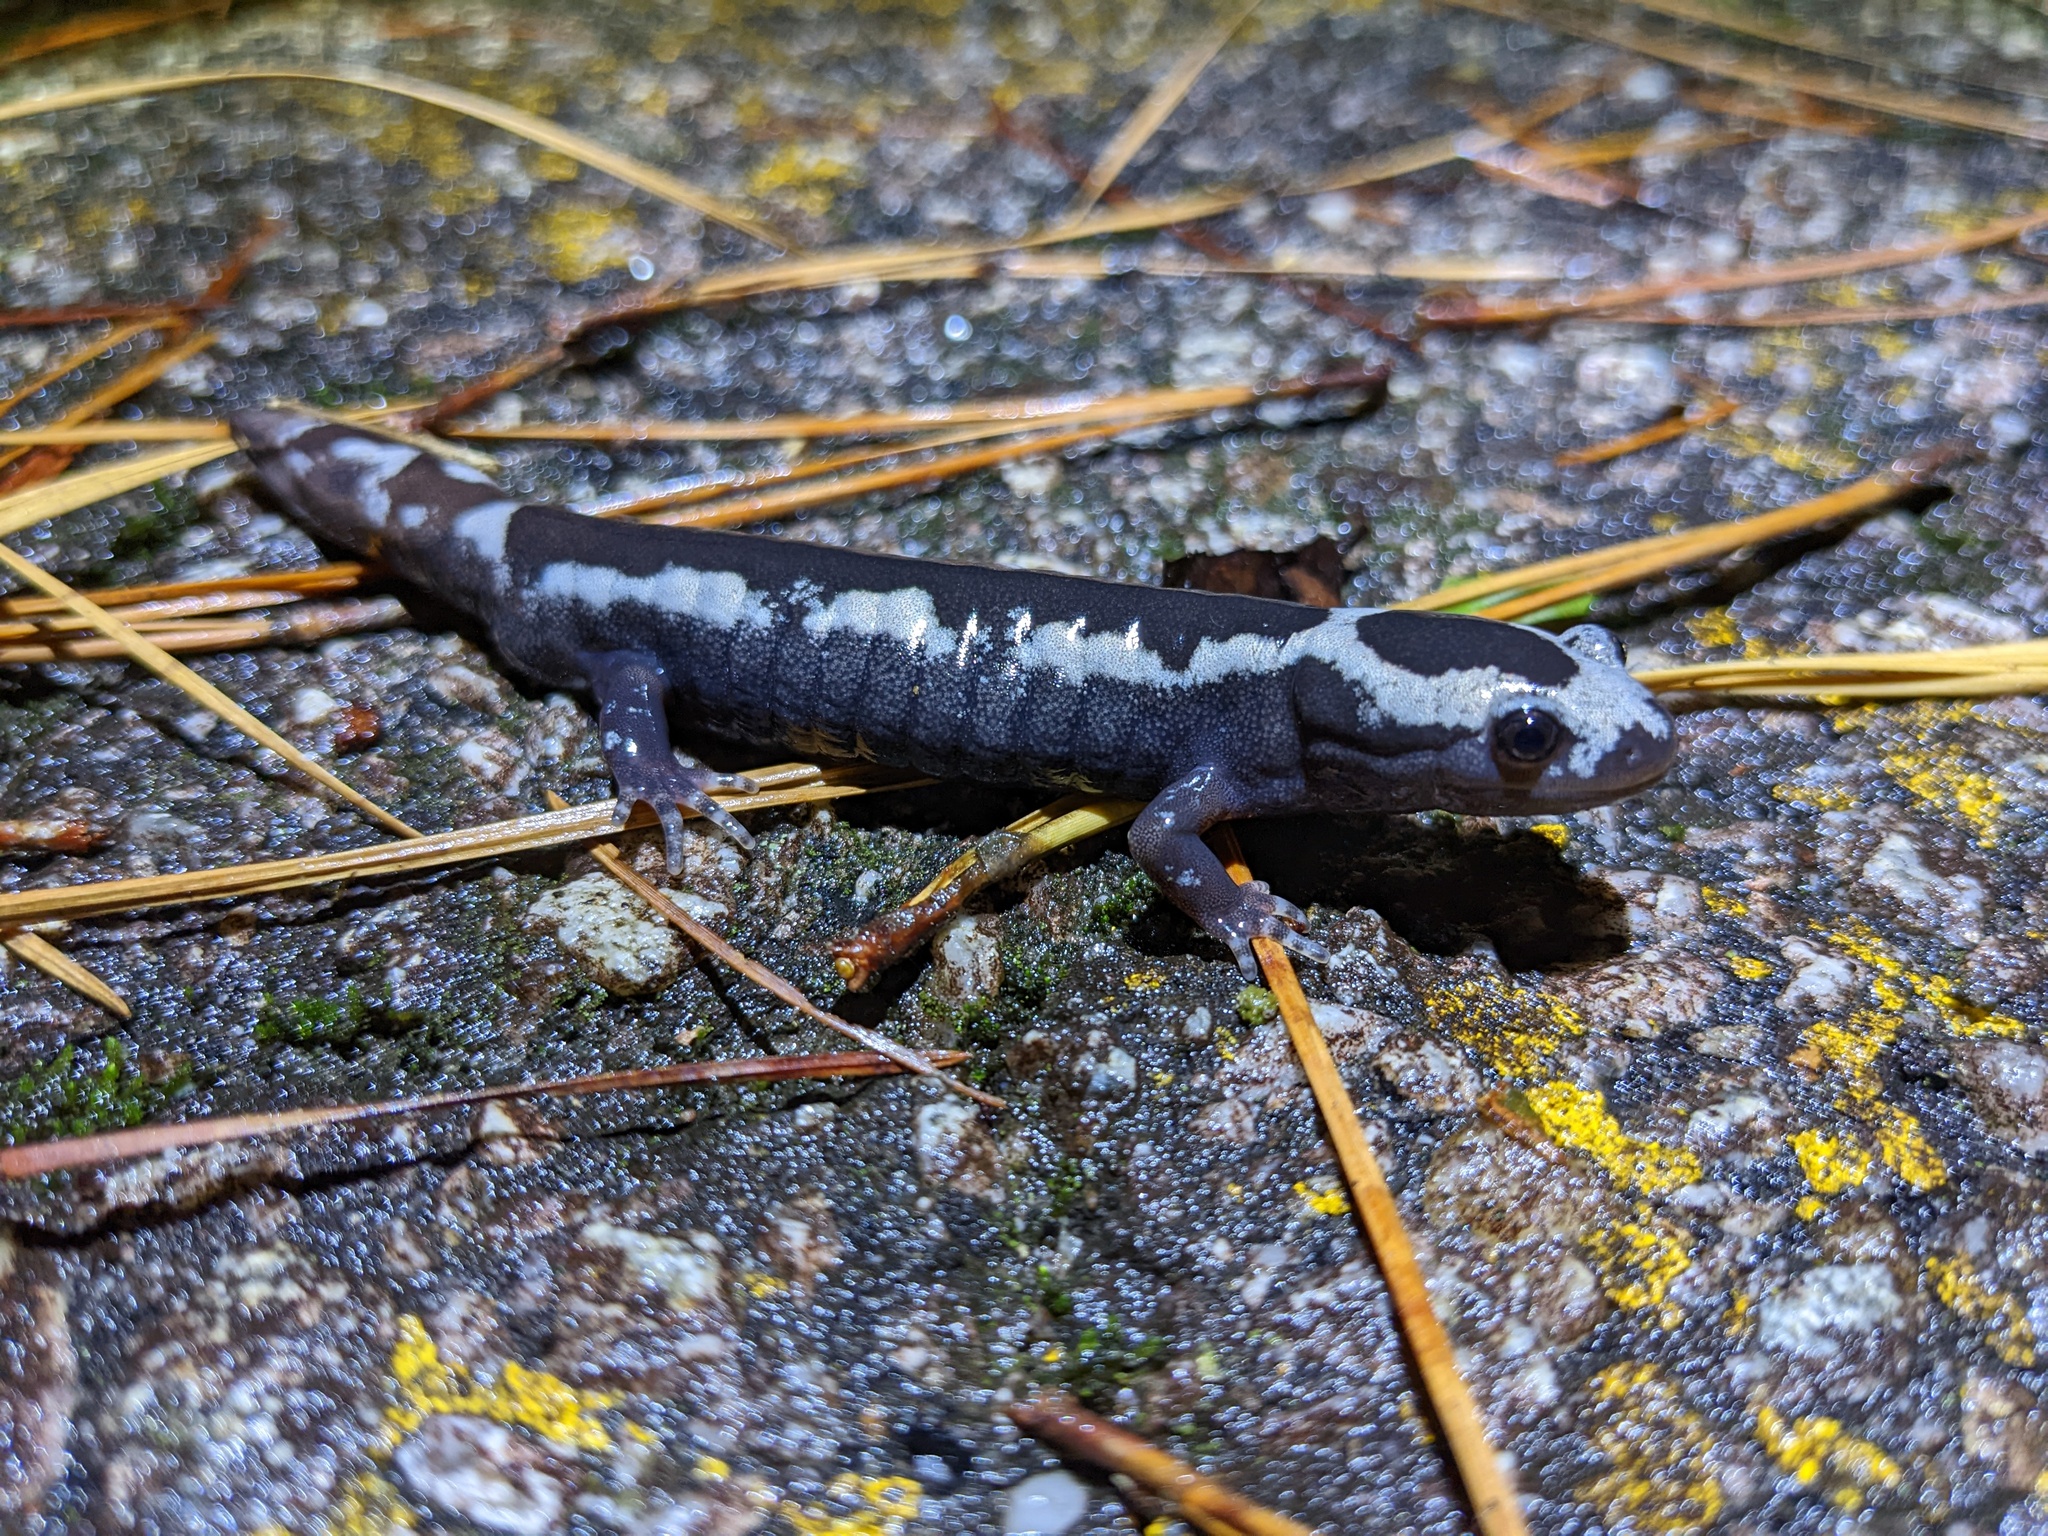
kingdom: Animalia
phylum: Chordata
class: Amphibia
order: Caudata
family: Ambystomatidae
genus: Ambystoma
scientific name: Ambystoma opacum
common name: Marbled salamander
